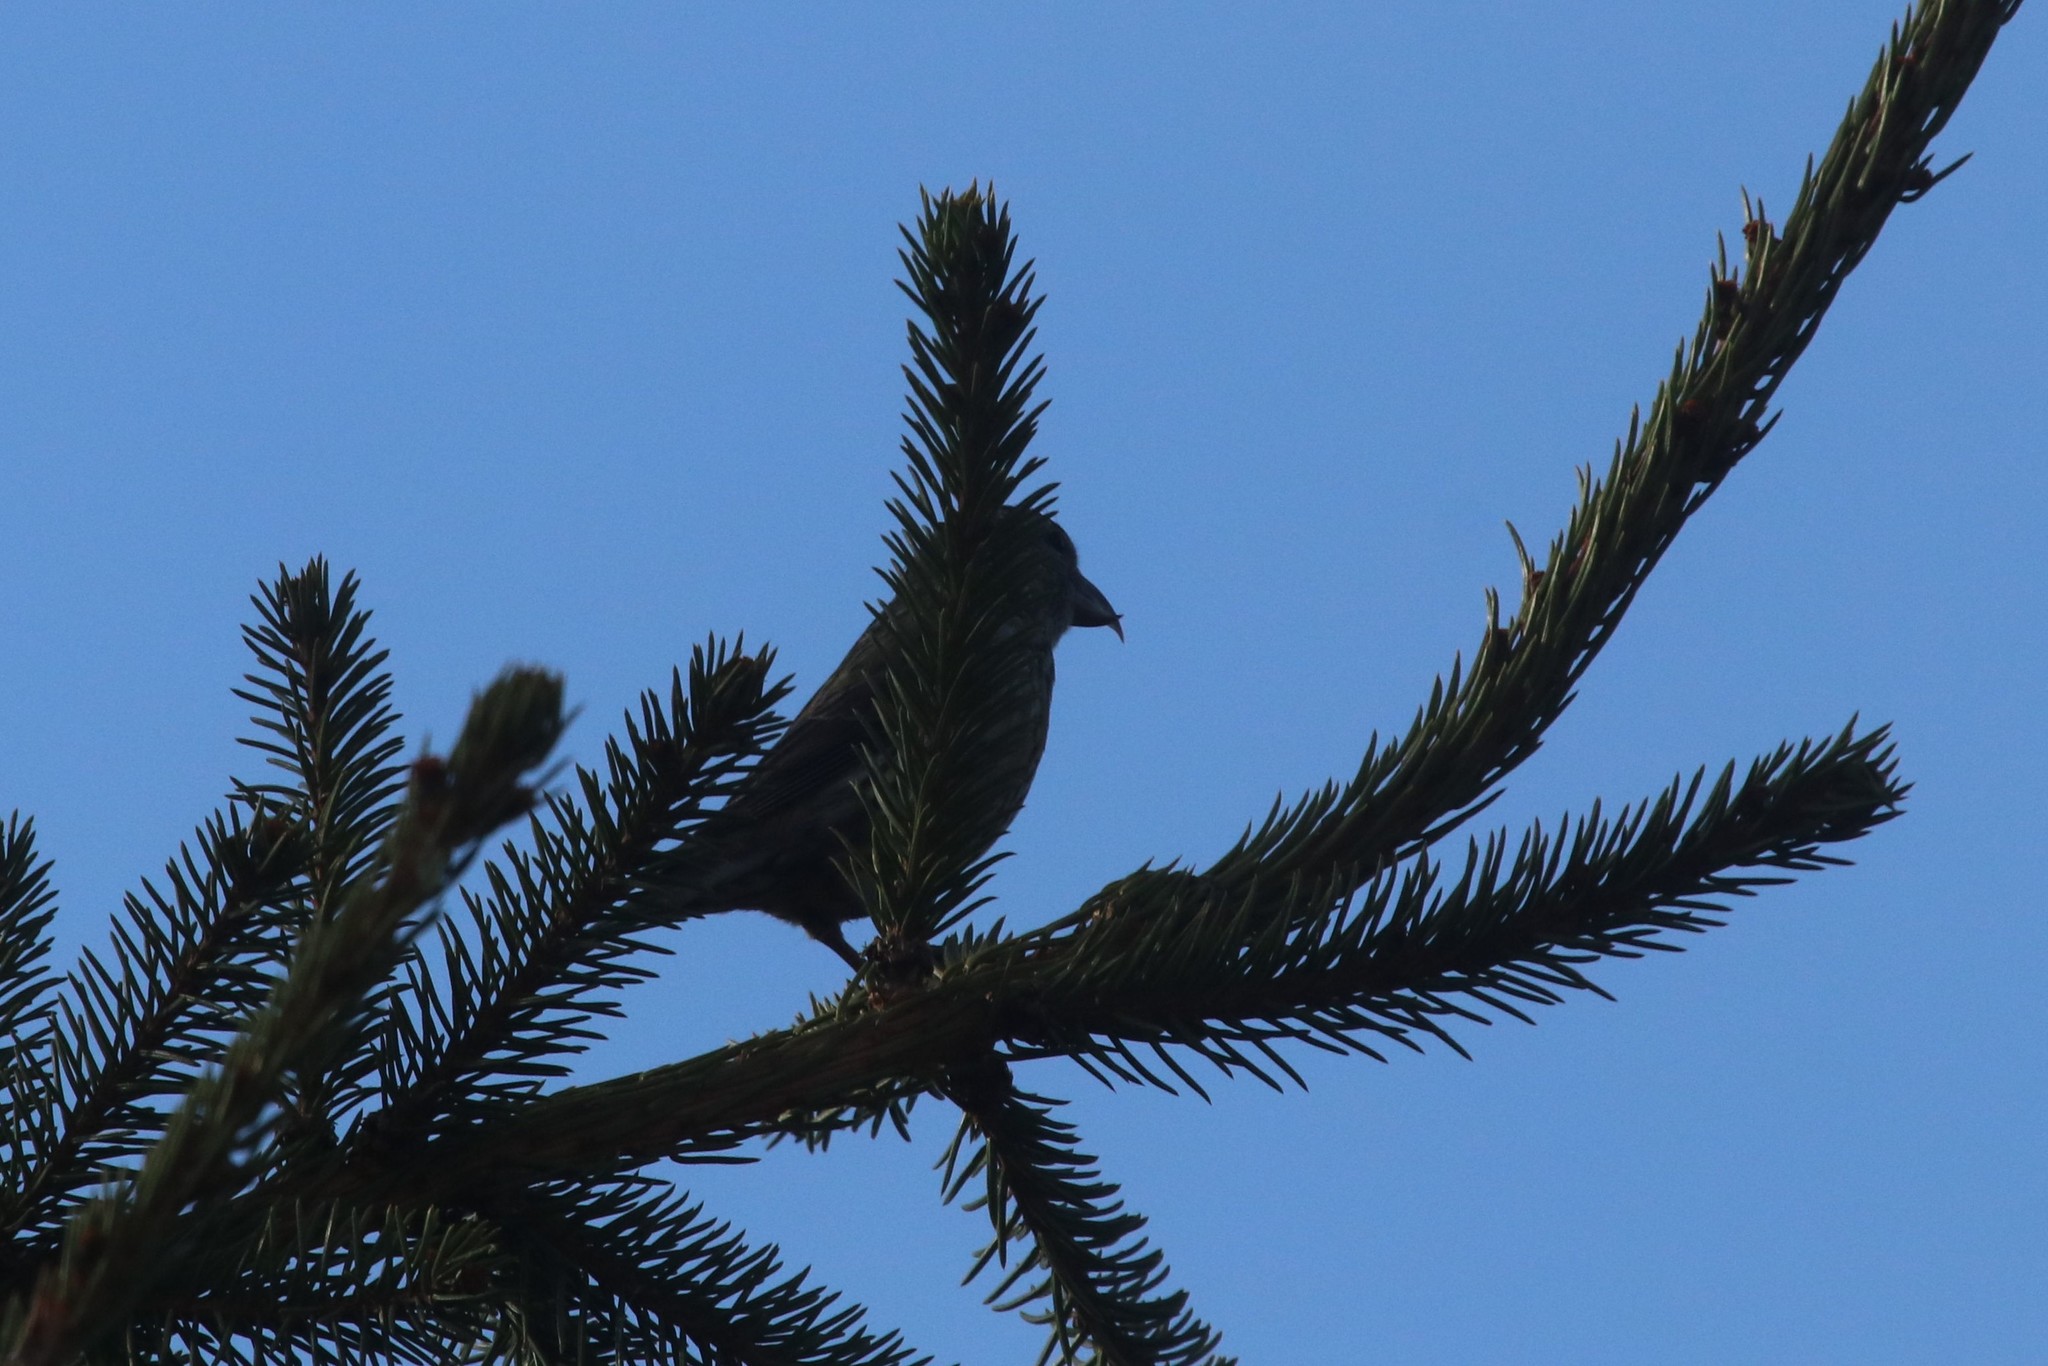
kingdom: Animalia
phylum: Chordata
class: Aves
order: Passeriformes
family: Fringillidae
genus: Loxia
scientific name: Loxia curvirostra
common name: Red crossbill
